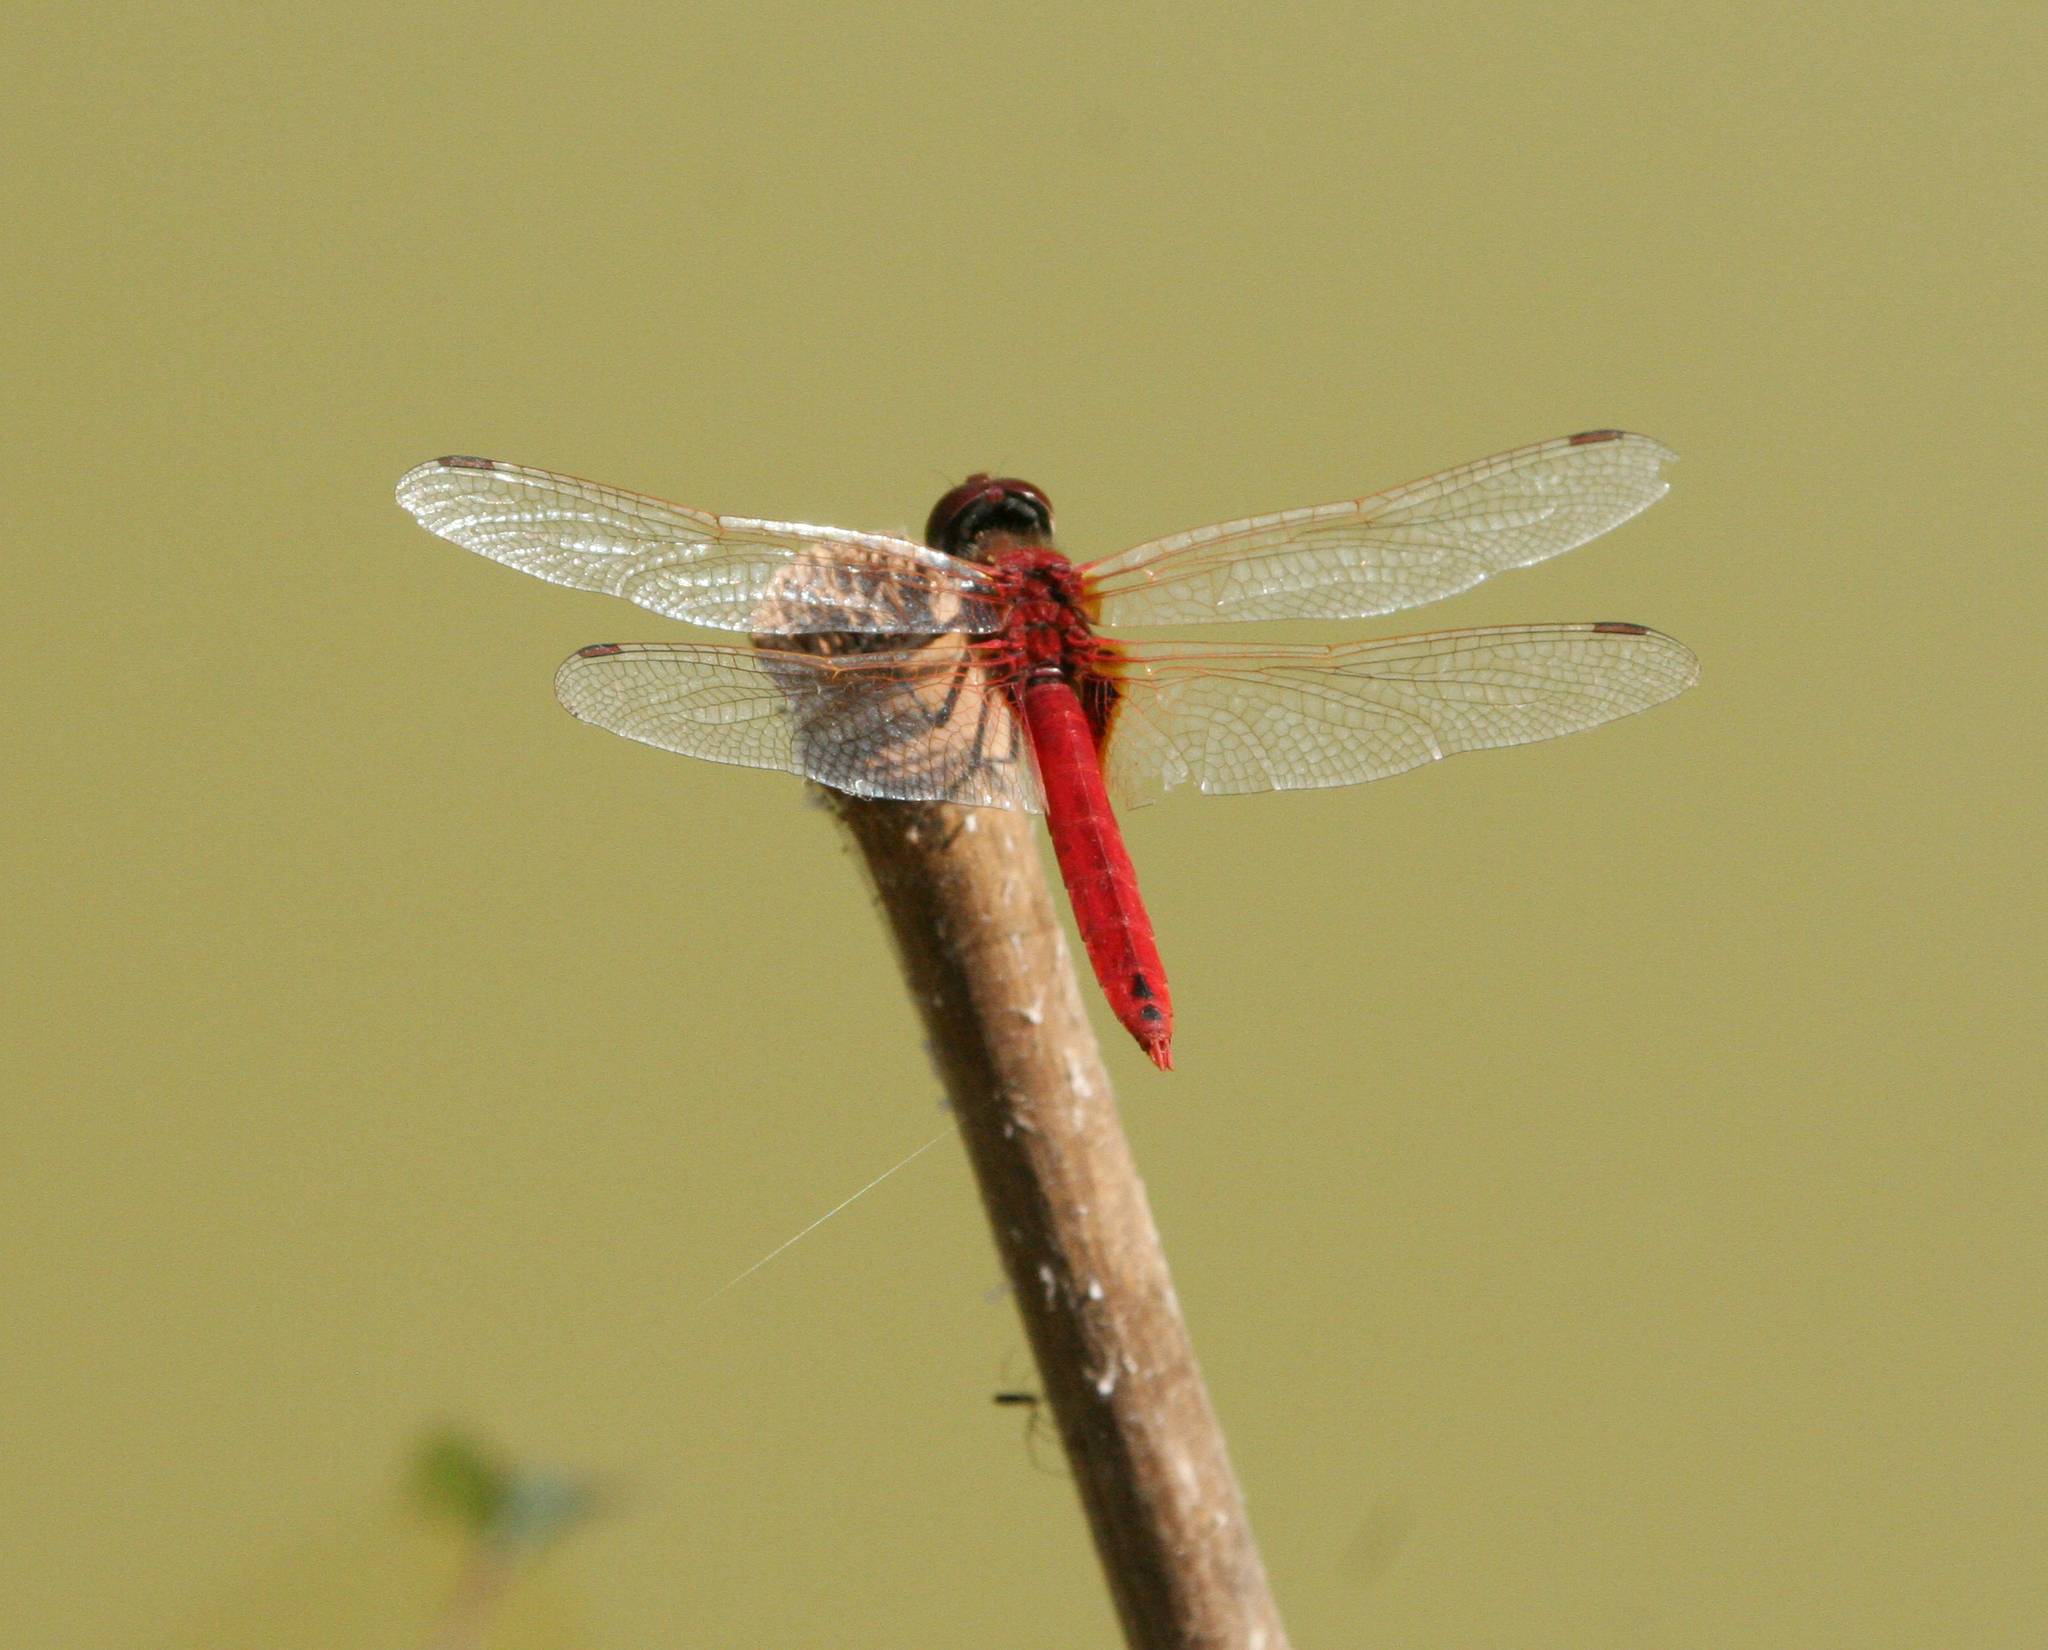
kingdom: Animalia
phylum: Arthropoda
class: Insecta
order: Odonata
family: Libellulidae
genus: Urothemis
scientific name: Urothemis signata
